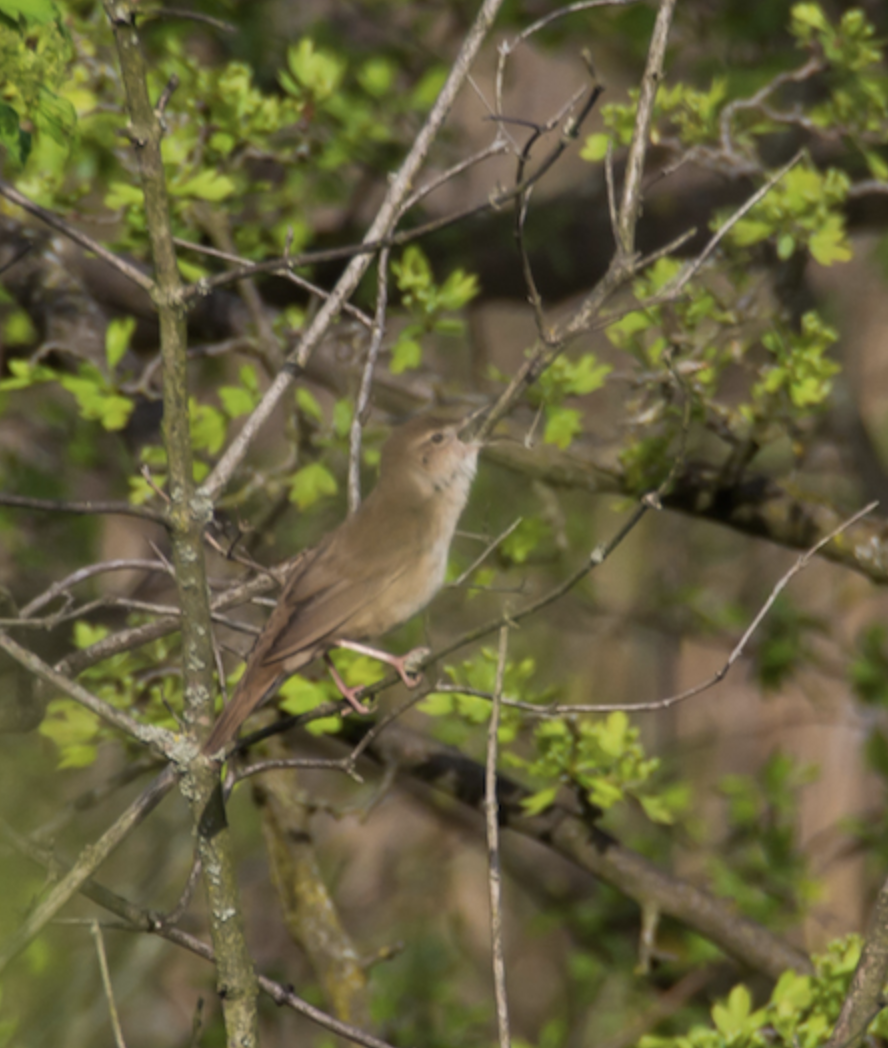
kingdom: Animalia
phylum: Chordata
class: Aves
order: Passeriformes
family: Locustellidae
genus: Locustella
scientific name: Locustella luscinioides
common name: Savi's warbler
